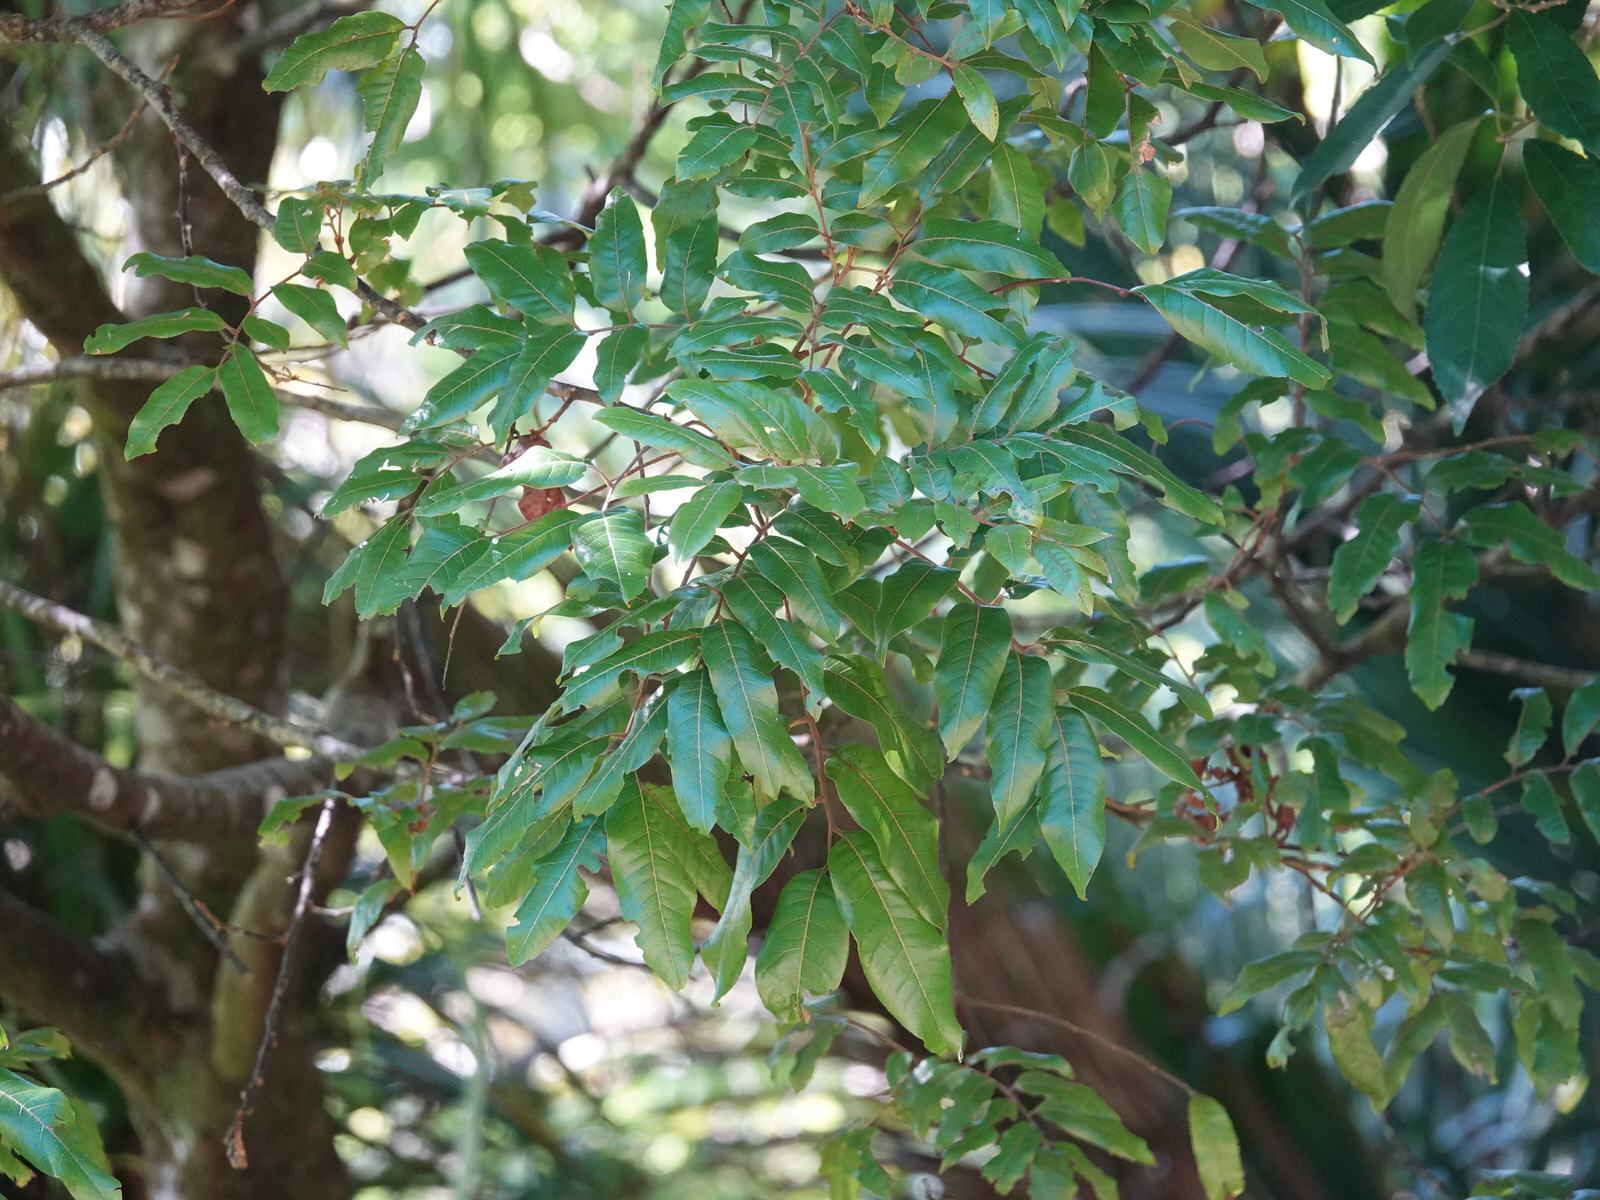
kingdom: Plantae
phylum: Tracheophyta
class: Magnoliopsida
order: Sapindales
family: Sapindaceae
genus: Alectryon
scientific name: Alectryon excelsus
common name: Three kings titoki
